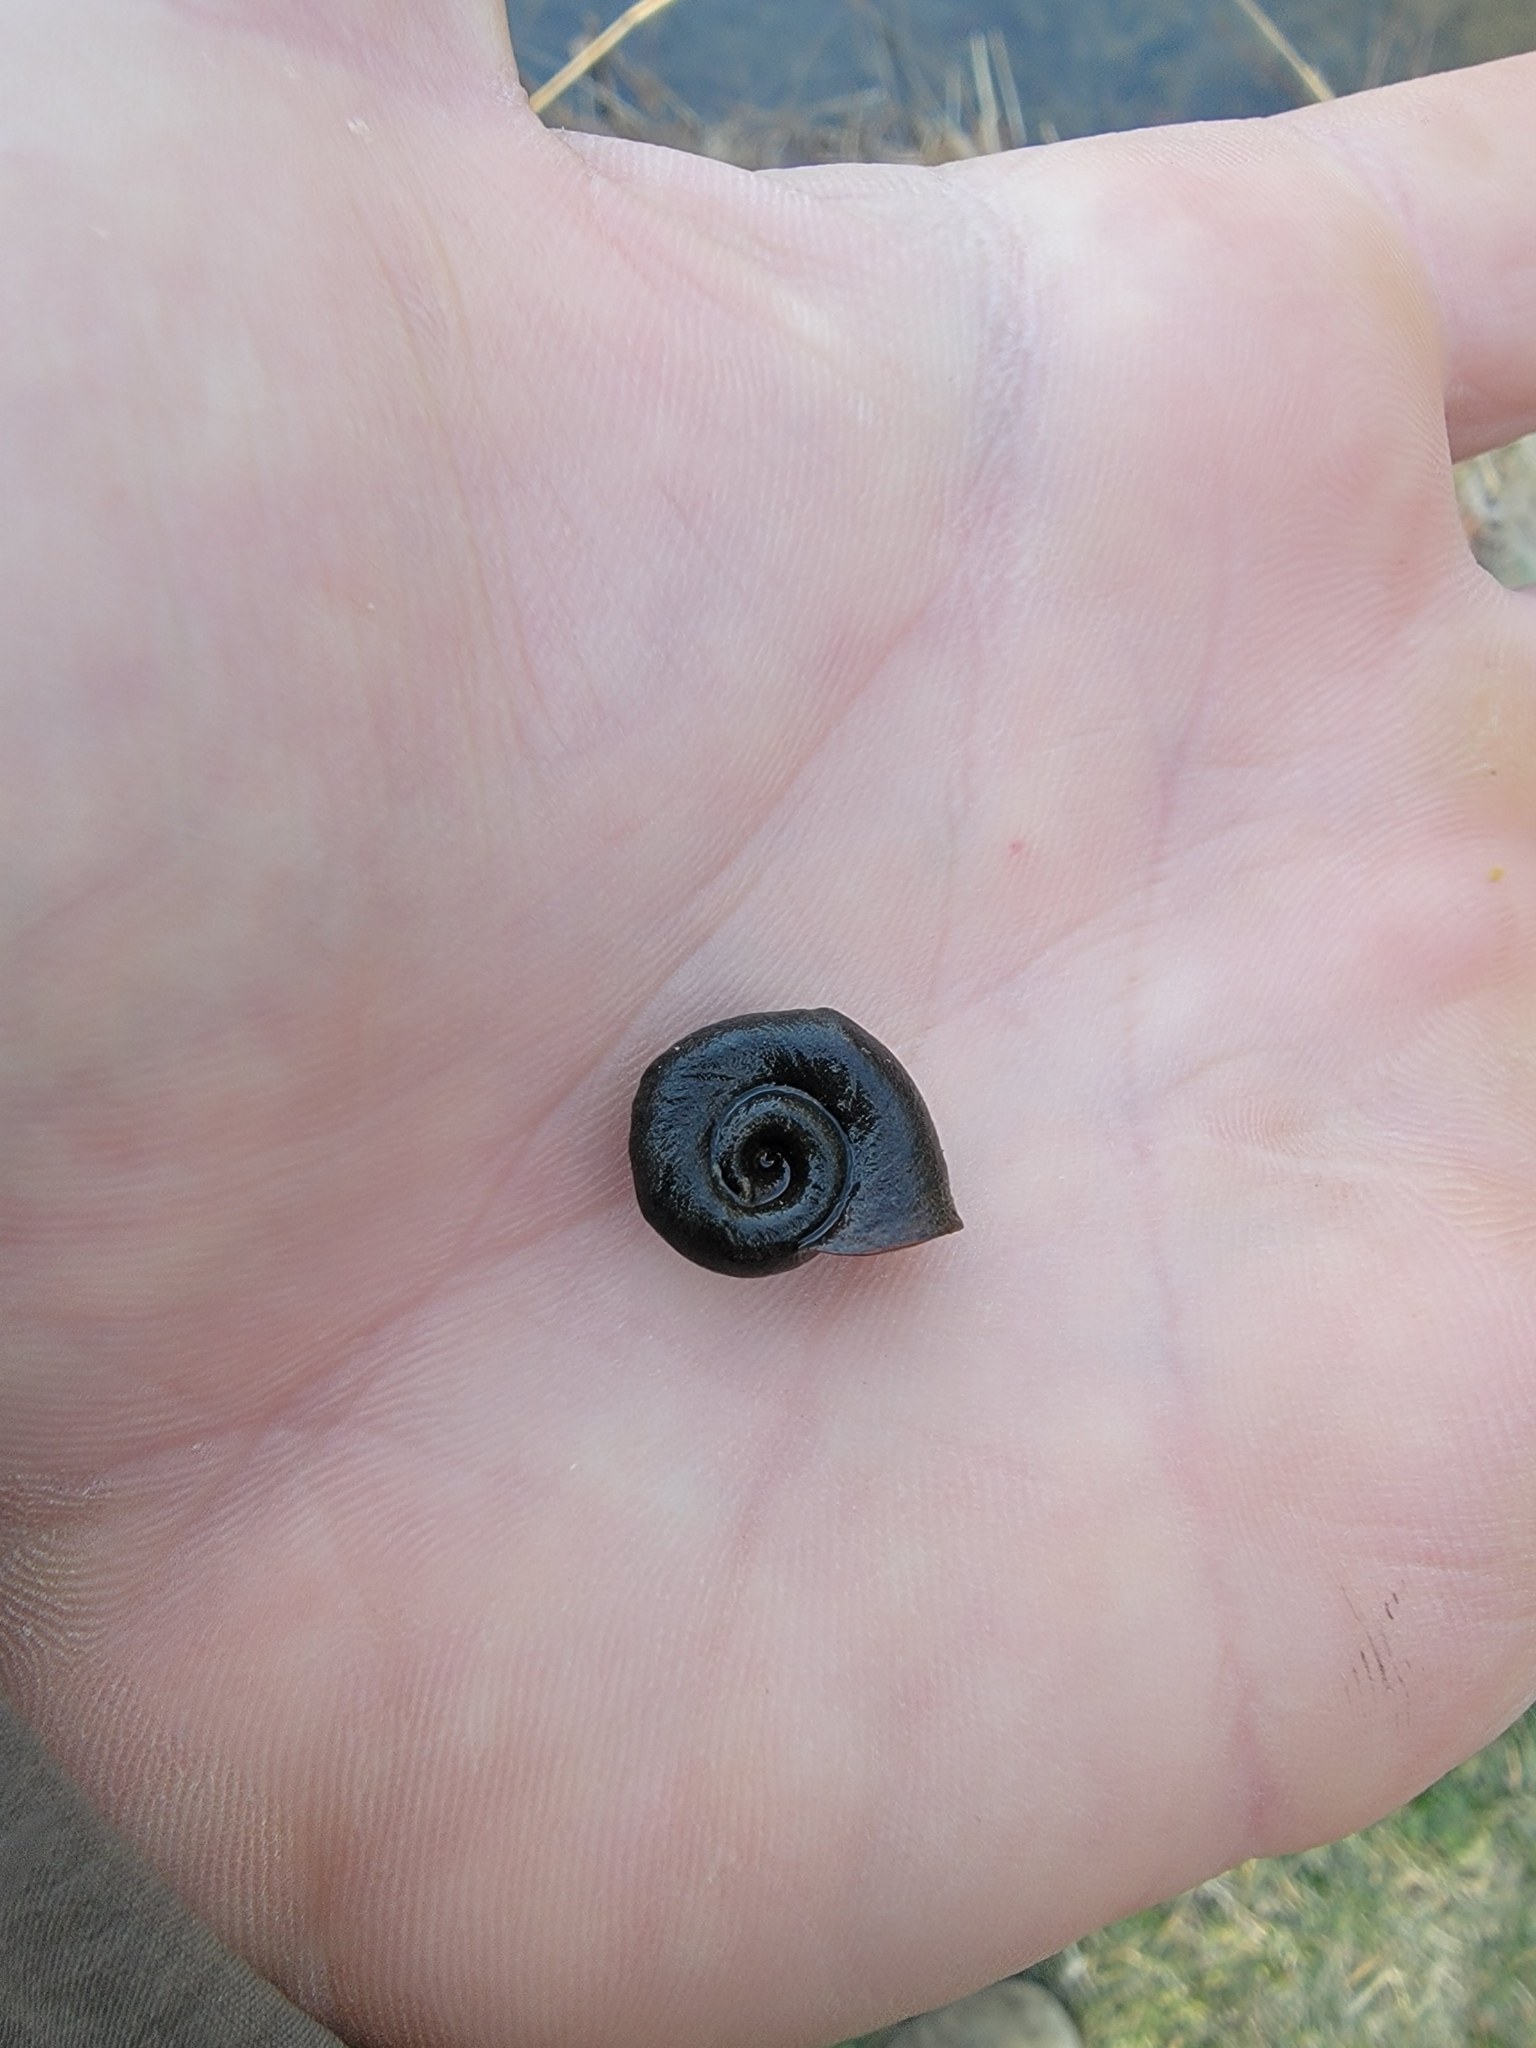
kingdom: Animalia
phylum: Mollusca
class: Gastropoda
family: Planorbidae
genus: Planorbella
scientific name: Planorbella trivolvis
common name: Marsh rams-horn
